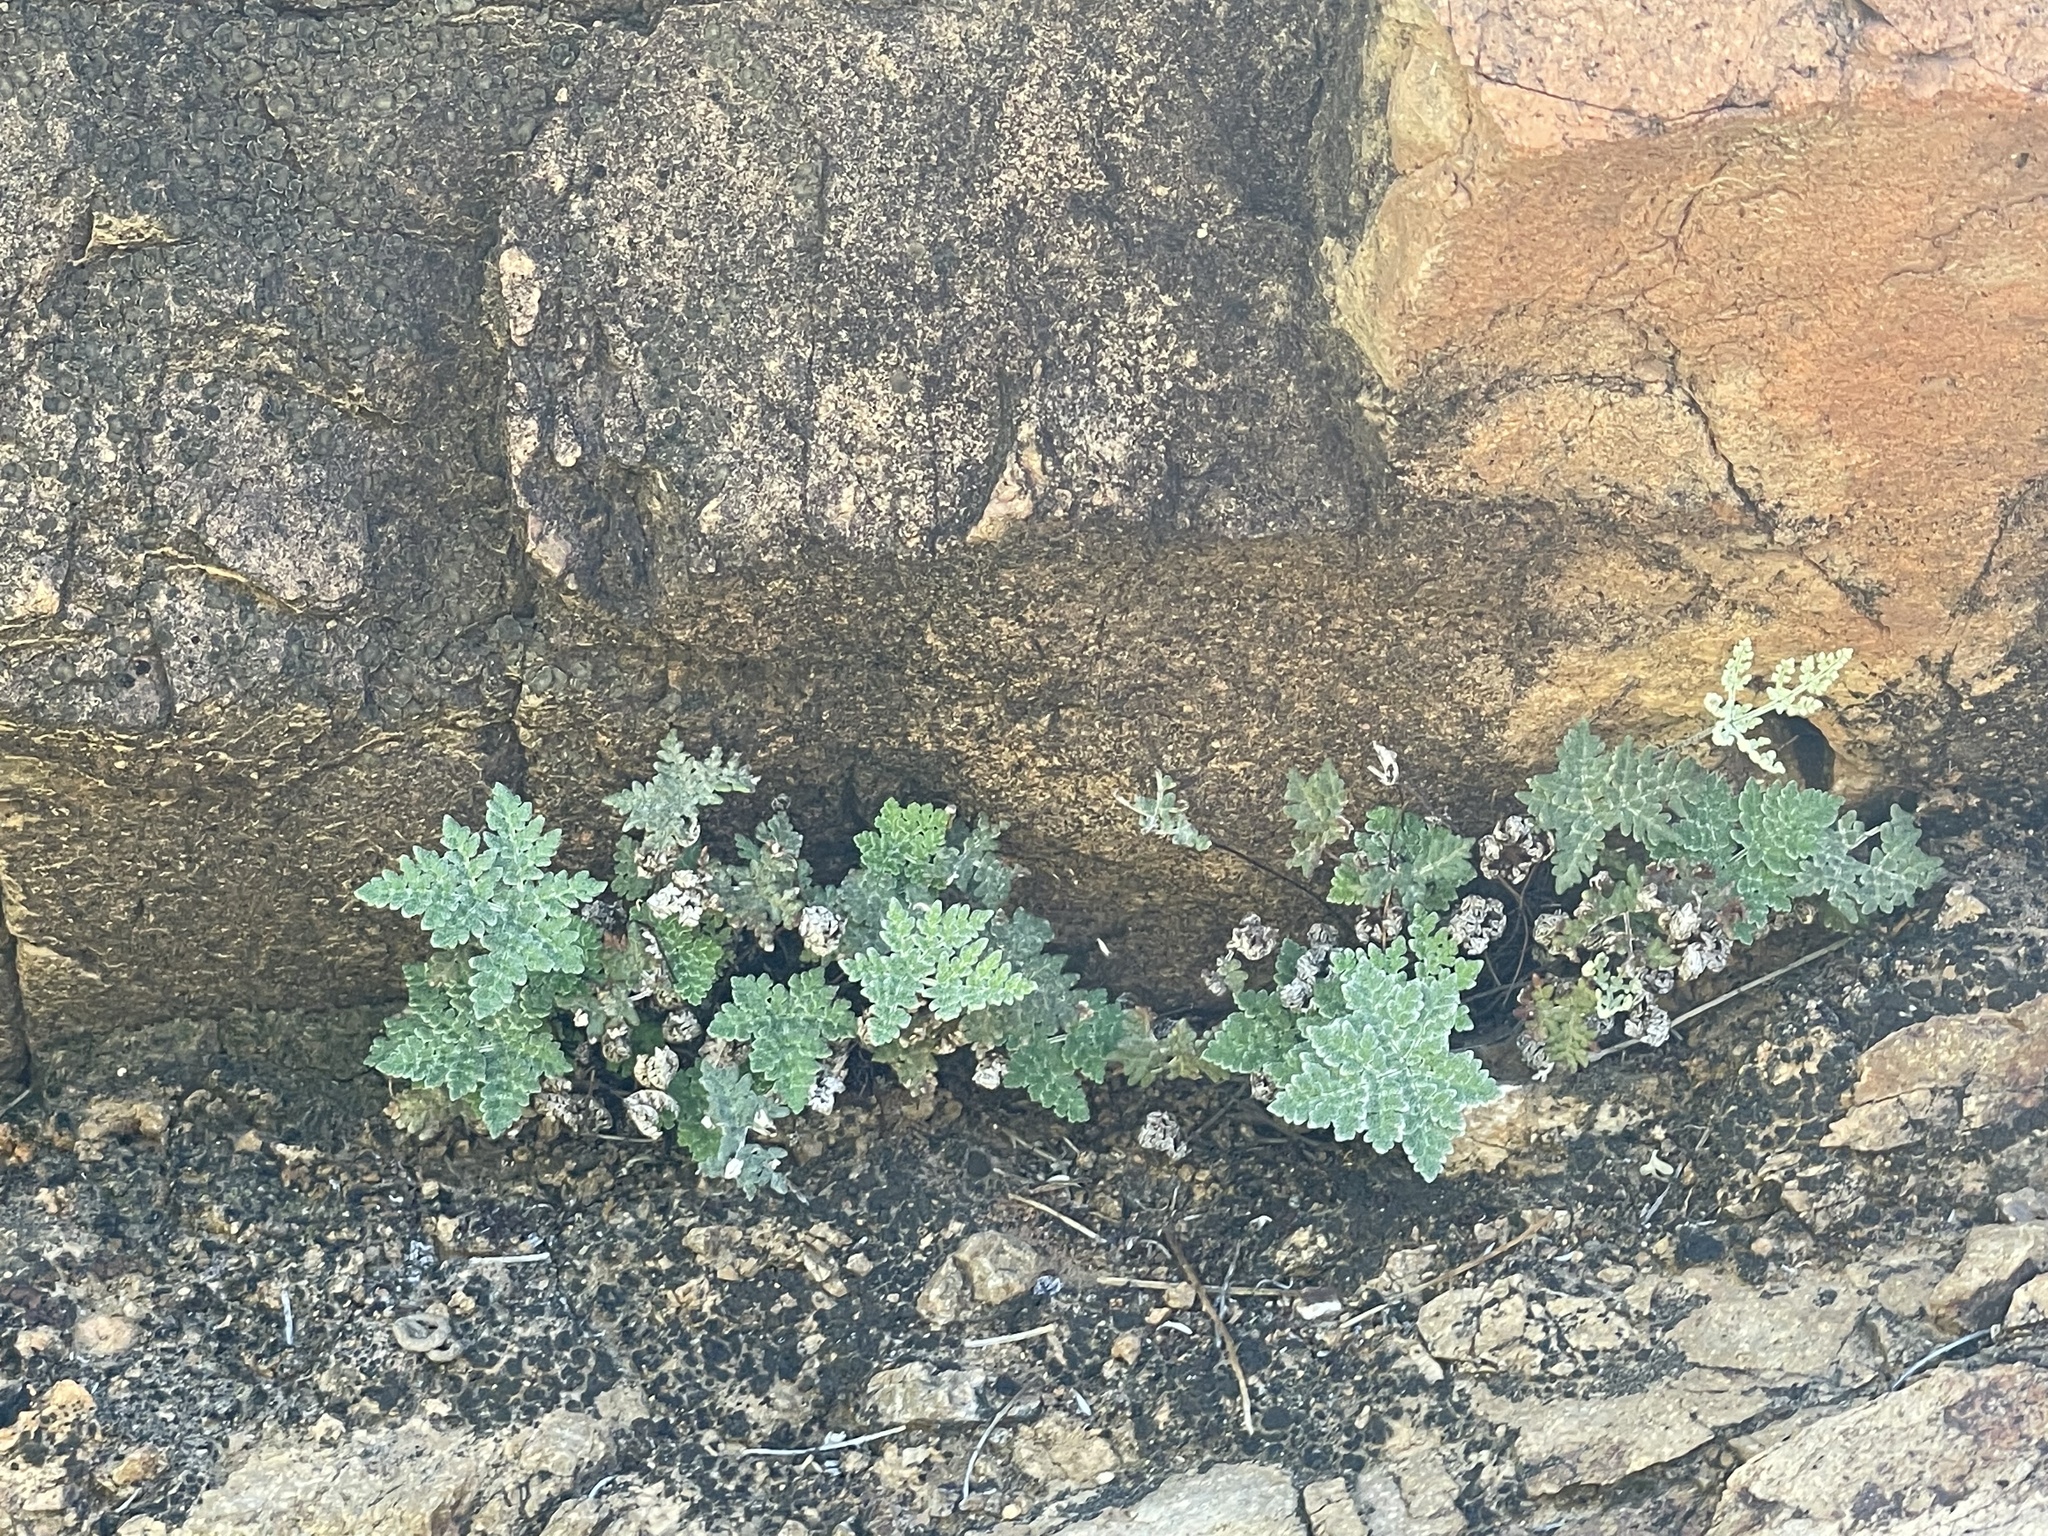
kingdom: Plantae
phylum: Tracheophyta
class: Polypodiopsida
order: Polypodiales
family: Pteridaceae
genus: Notholaena
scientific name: Notholaena californica
